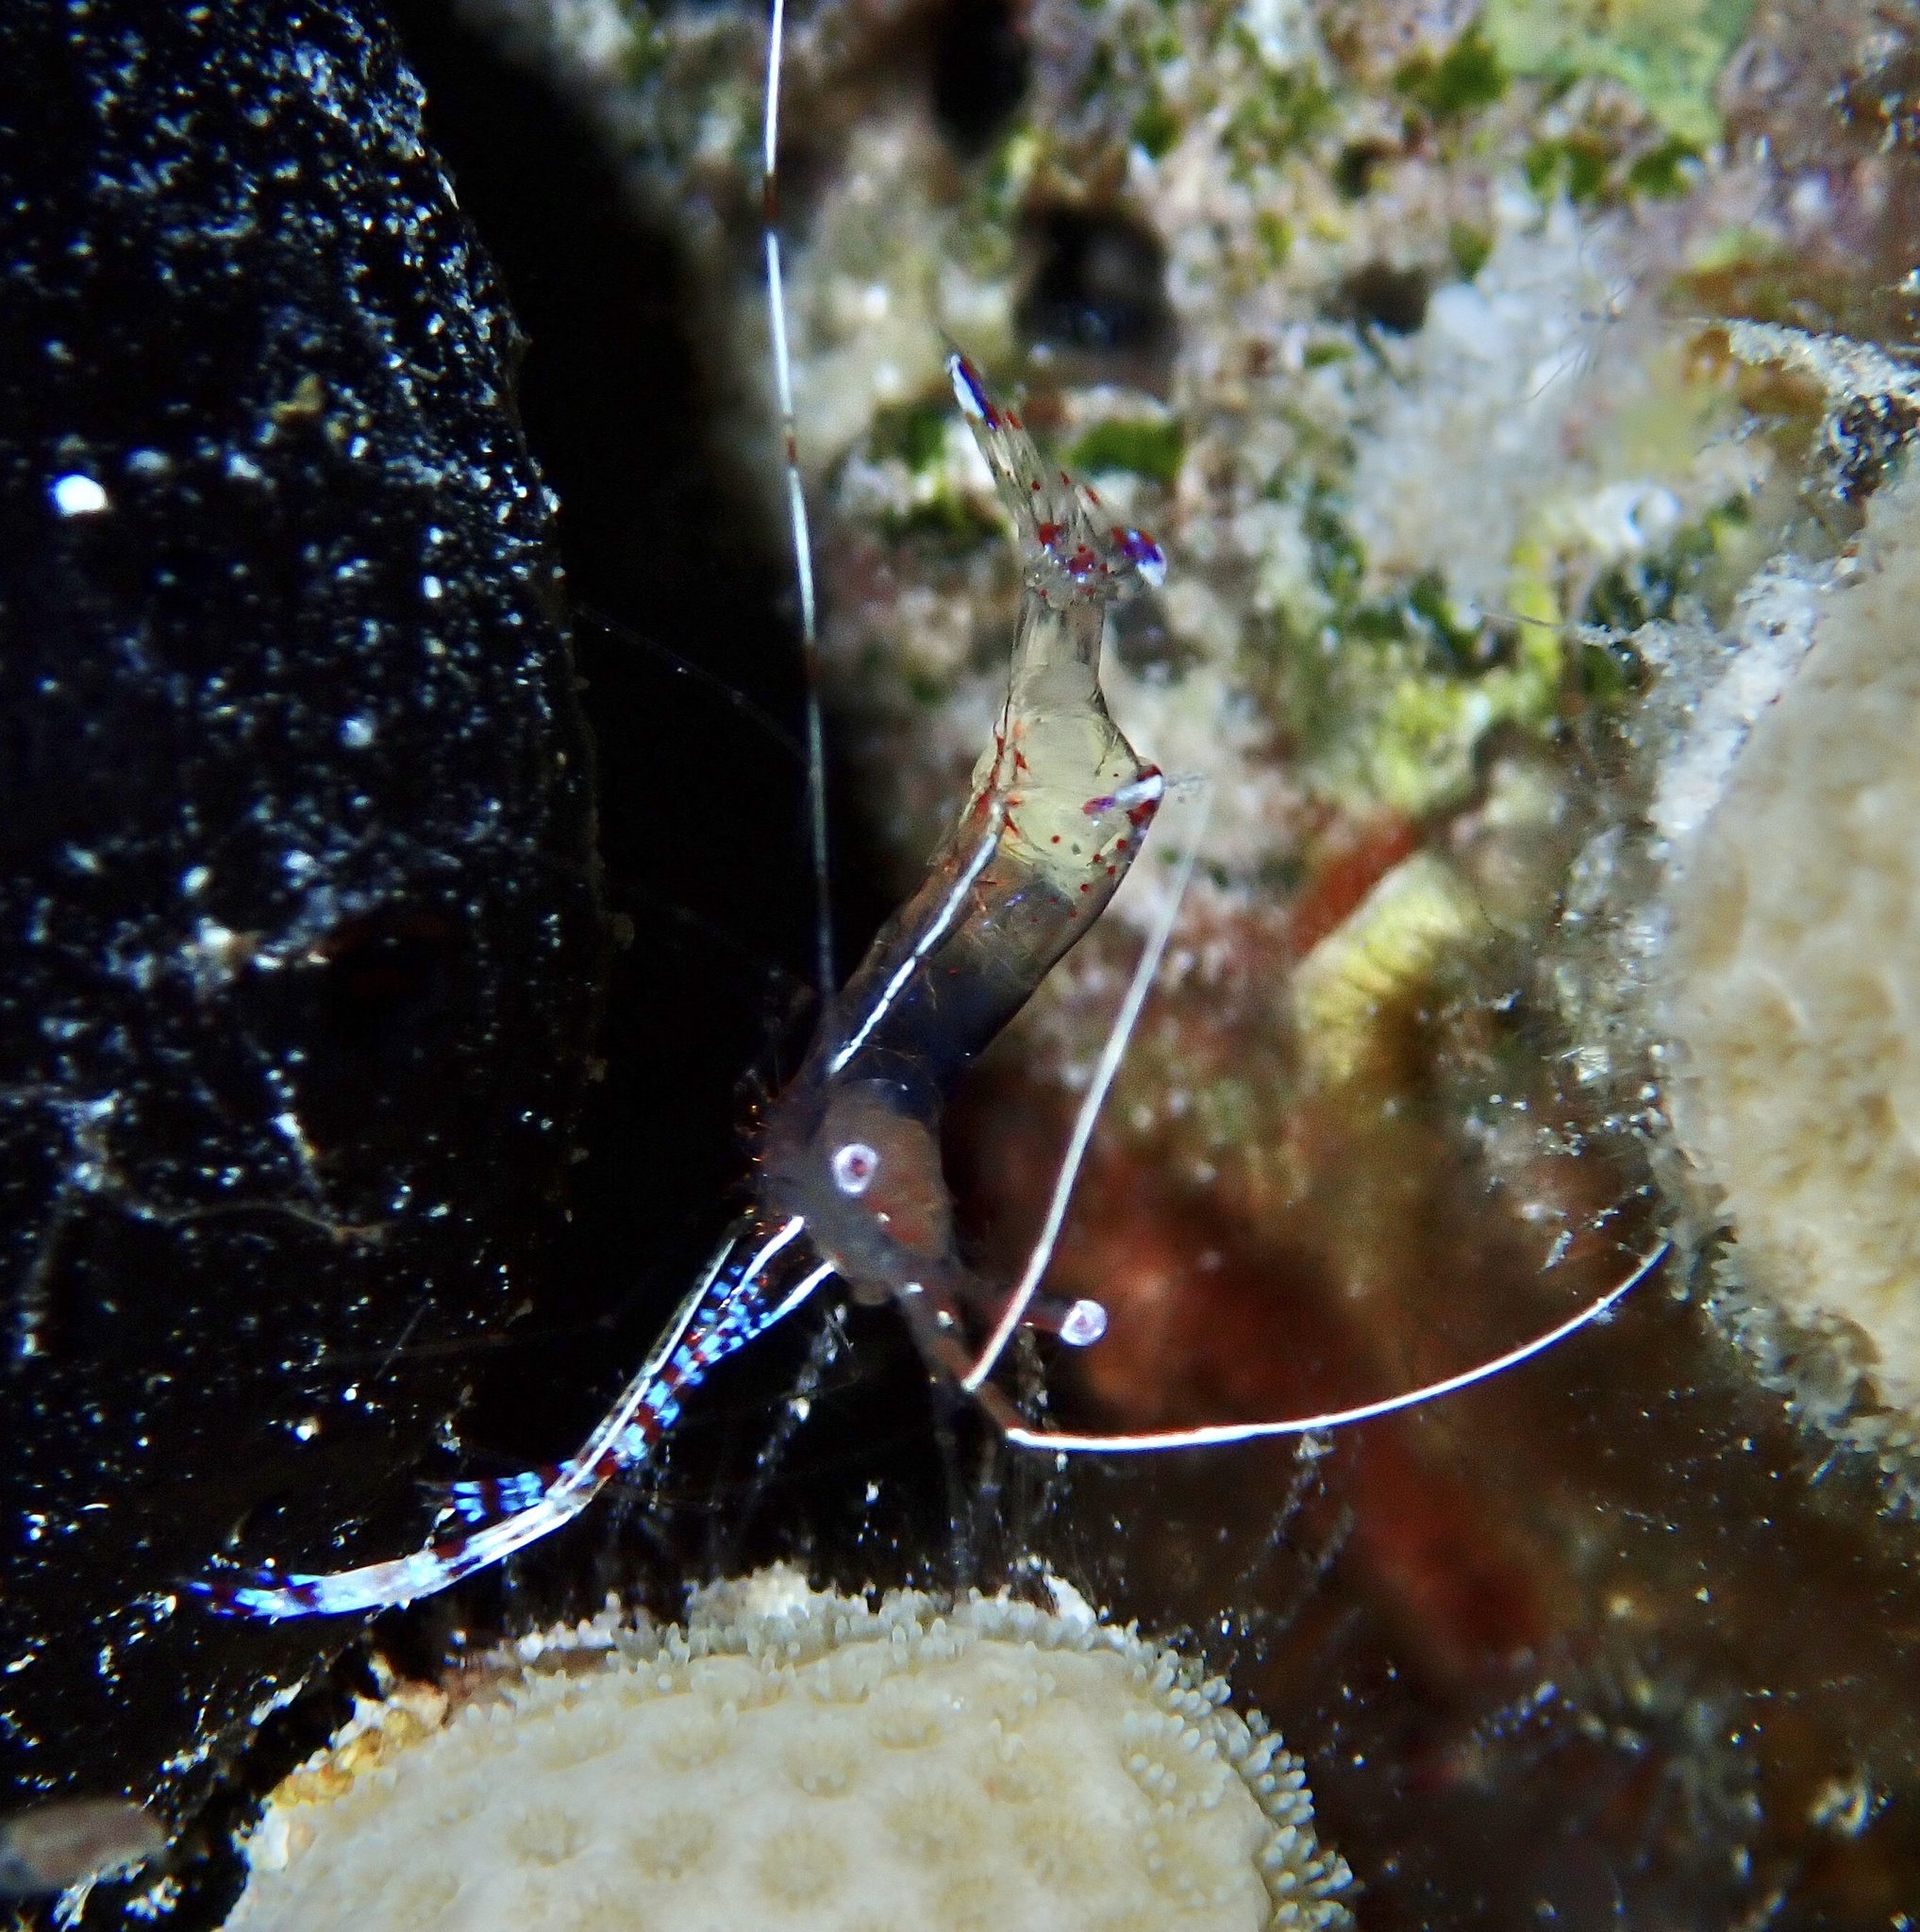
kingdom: Animalia
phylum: Arthropoda
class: Malacostraca
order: Decapoda
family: Palaemonidae
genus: Ancylomenes
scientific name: Ancylomenes pedersoni
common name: Pederson's cleaning shrimp
